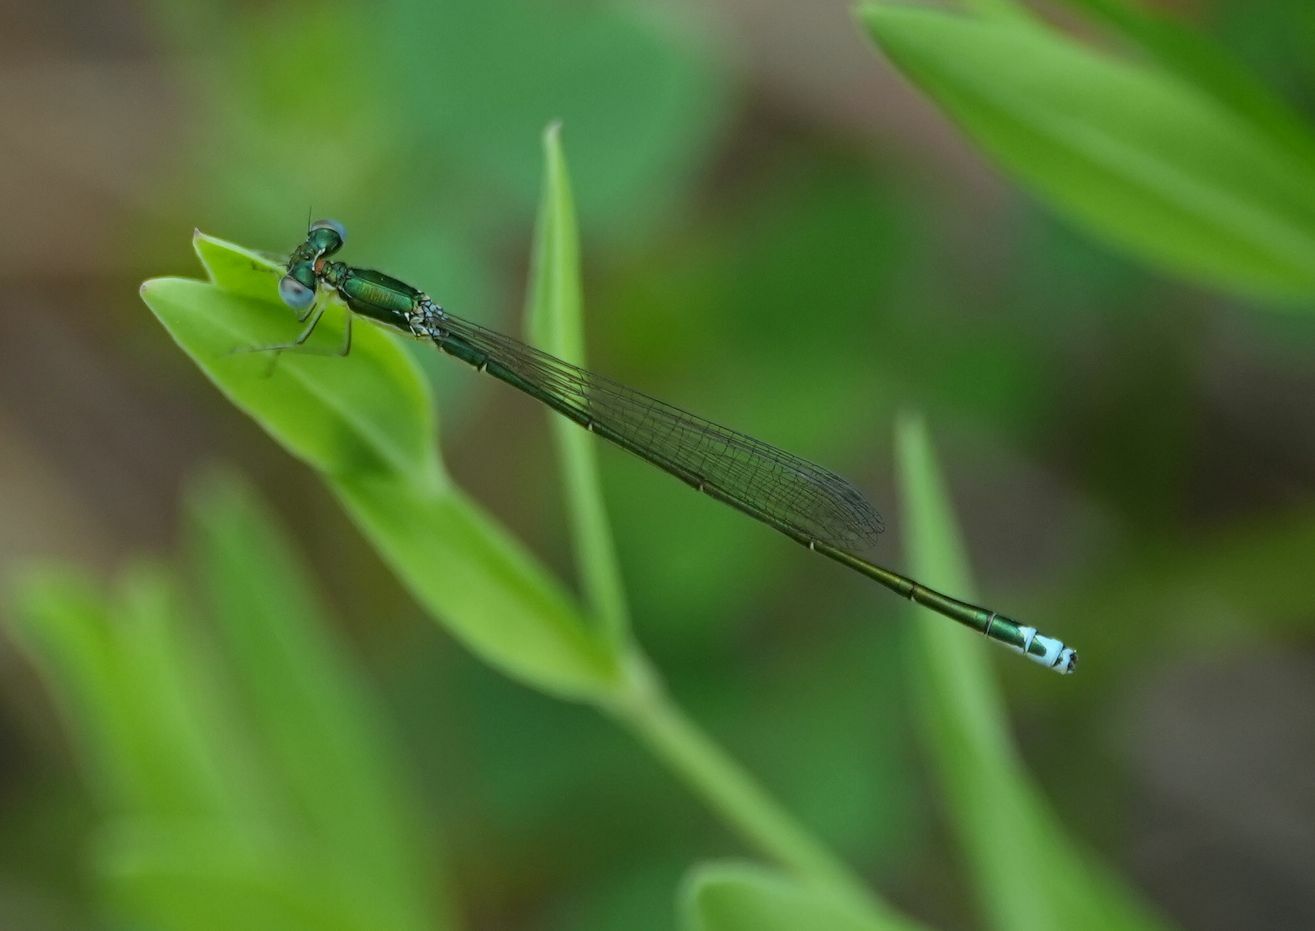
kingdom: Animalia
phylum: Arthropoda
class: Insecta
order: Odonata
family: Coenagrionidae
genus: Nehalennia
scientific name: Nehalennia irene
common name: Sedge sprite
